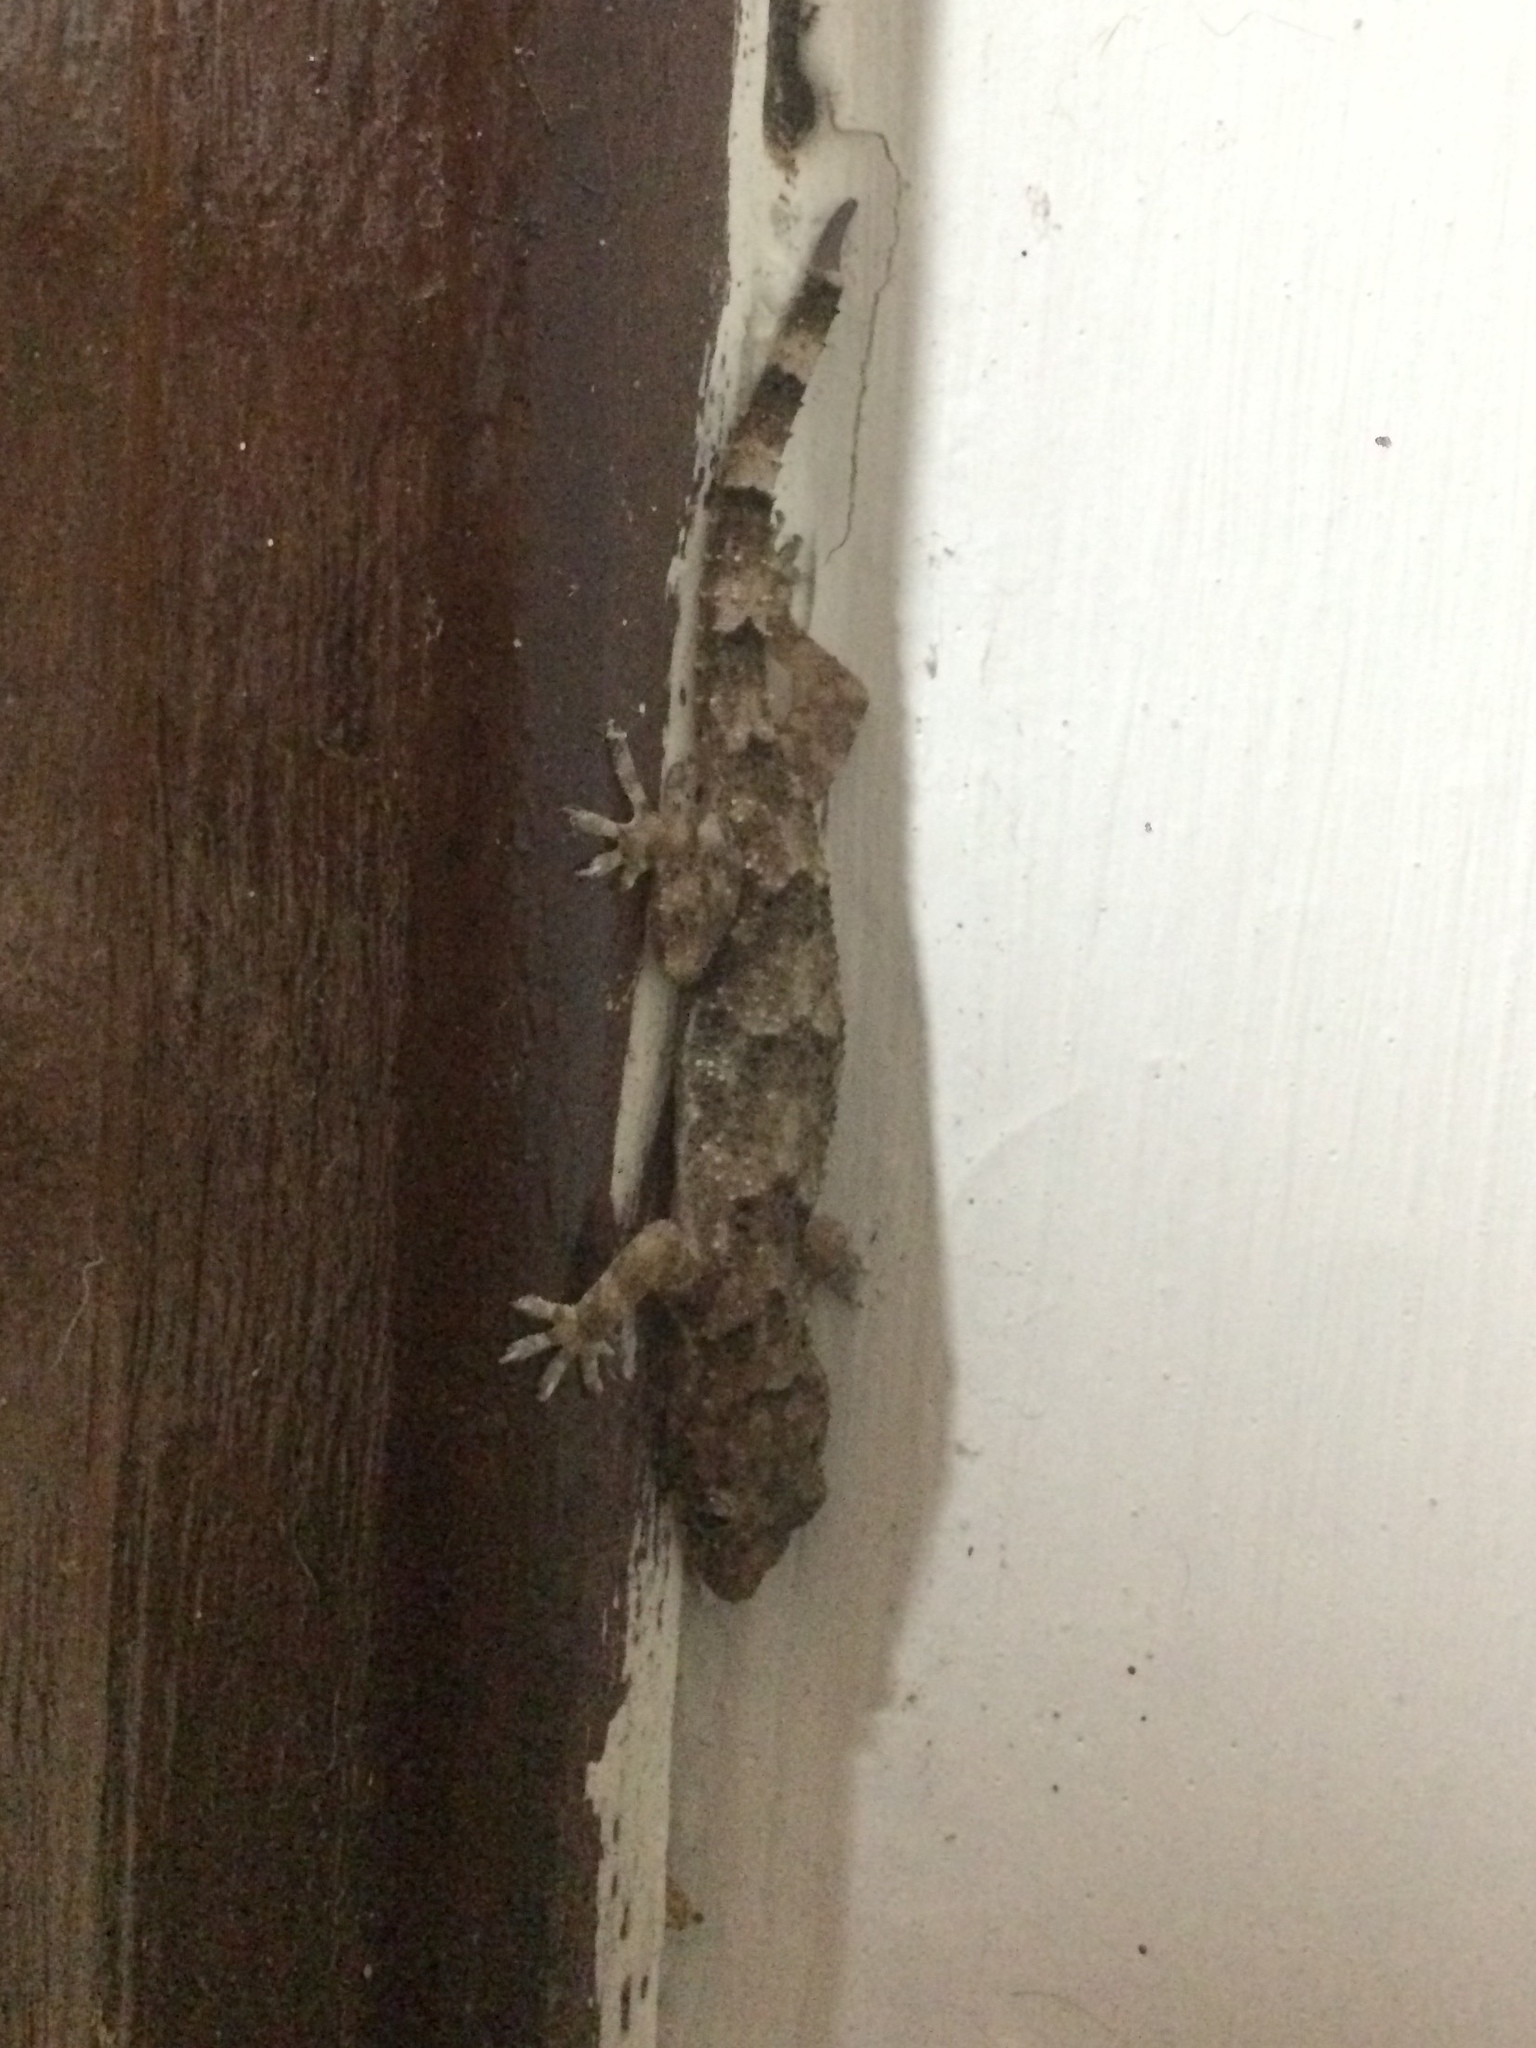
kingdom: Animalia
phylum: Chordata
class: Squamata
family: Gekkonidae
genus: Hemidactylus
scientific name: Hemidactylus mabouia
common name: House gecko
